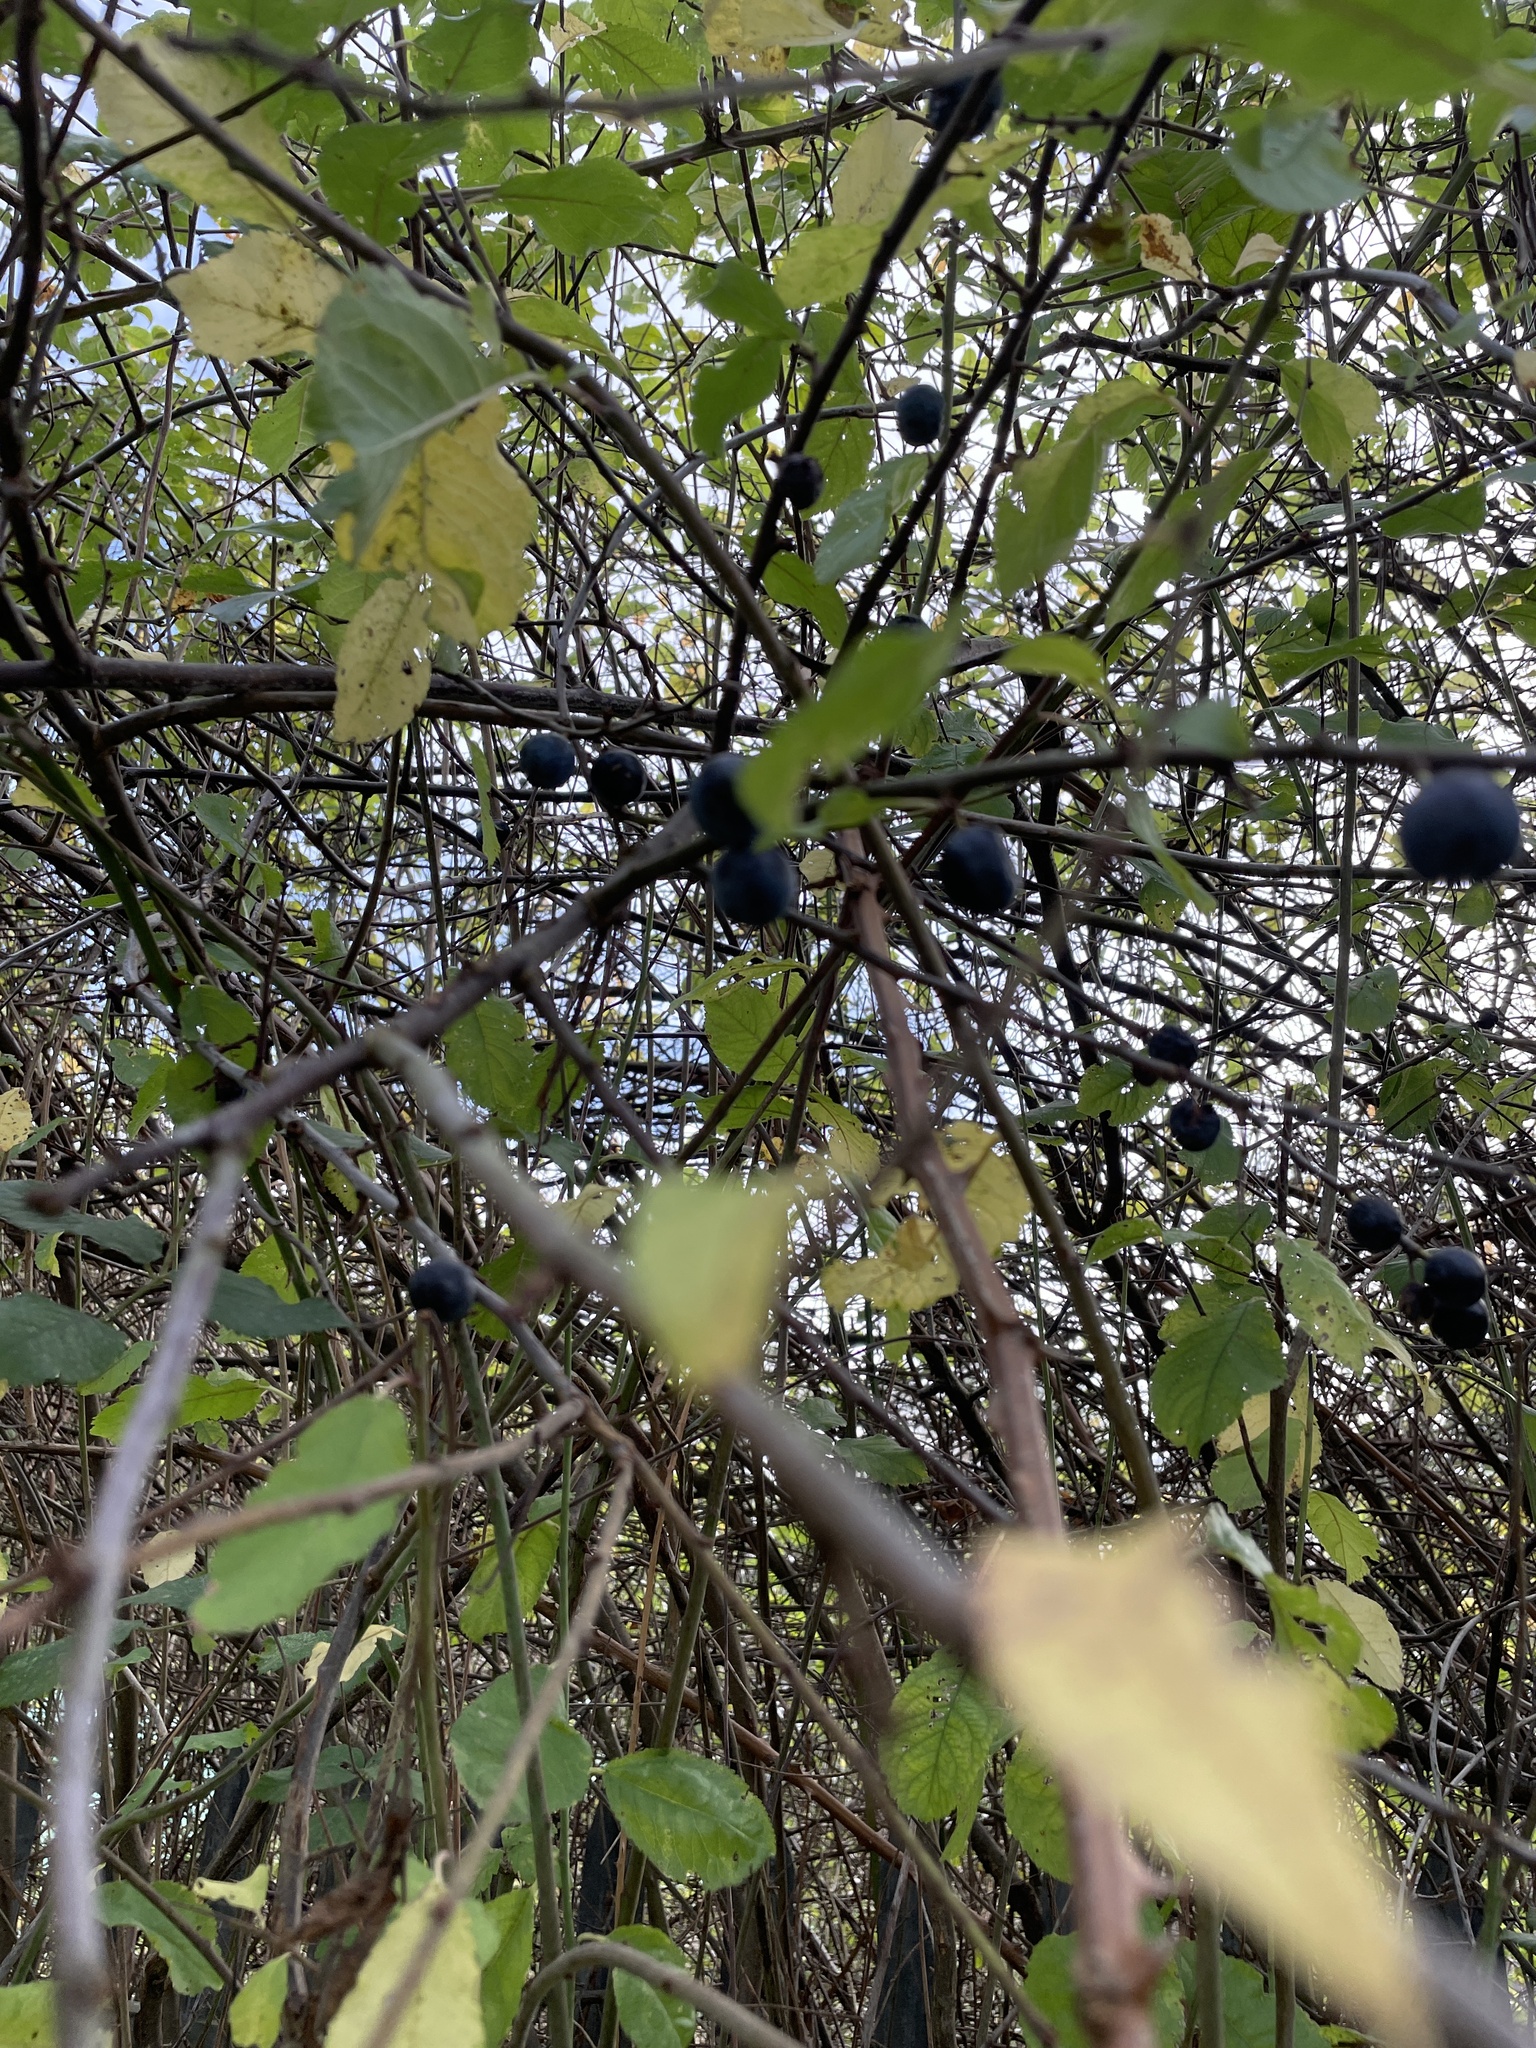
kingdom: Plantae
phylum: Tracheophyta
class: Magnoliopsida
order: Rosales
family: Rosaceae
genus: Prunus
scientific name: Prunus spinosa
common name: Blackthorn
